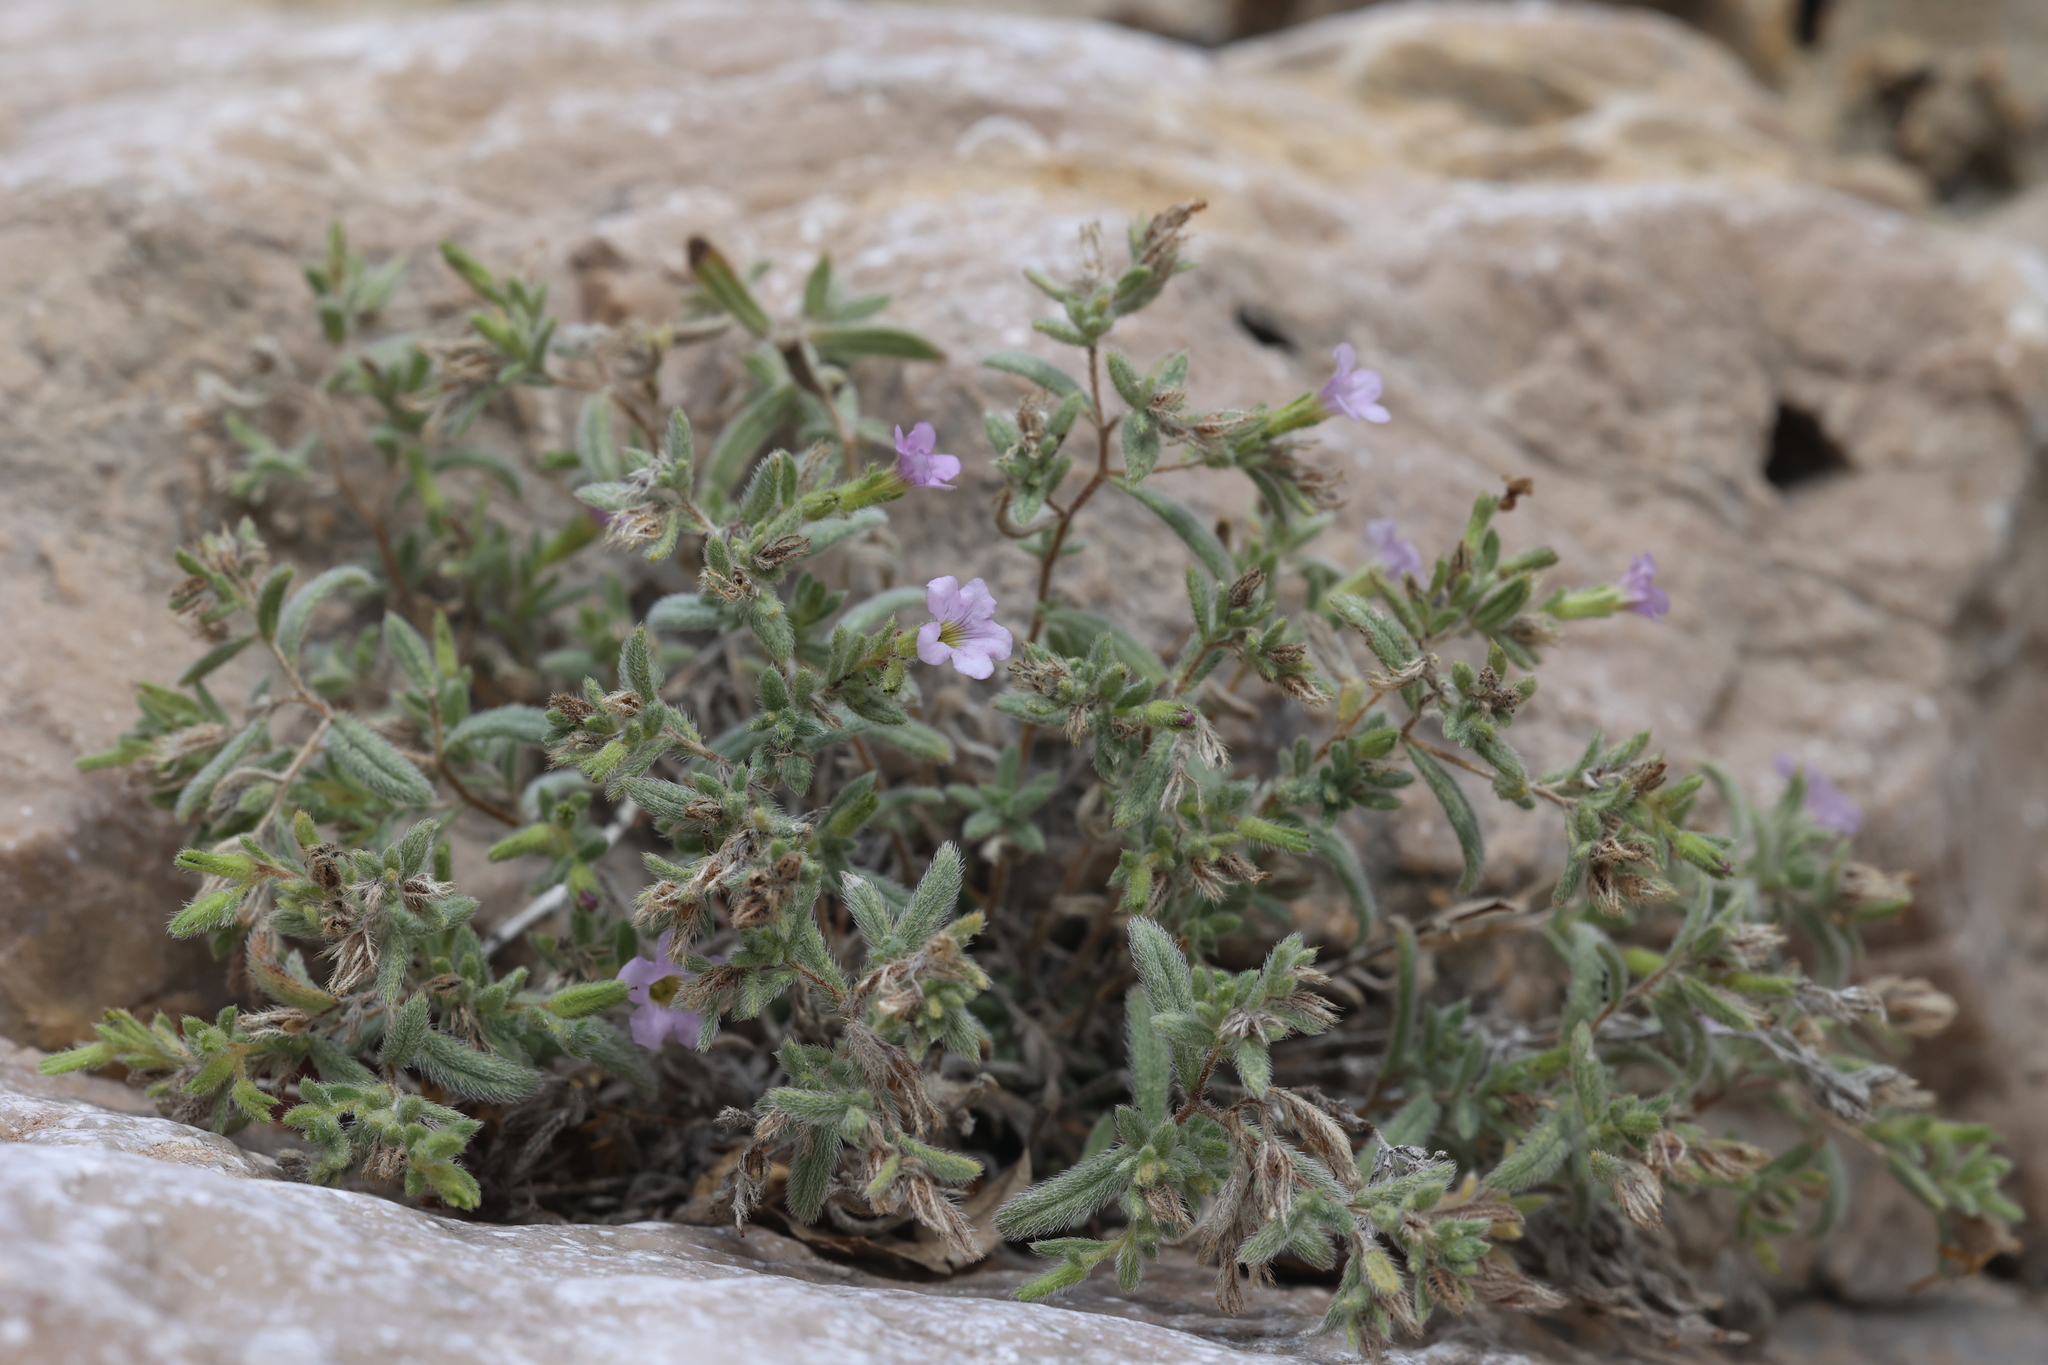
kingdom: Plantae
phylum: Tracheophyta
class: Magnoliopsida
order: Boraginales
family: Namaceae
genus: Nama
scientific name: Nama xylopoda
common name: Yellowseed fiddleleaf
